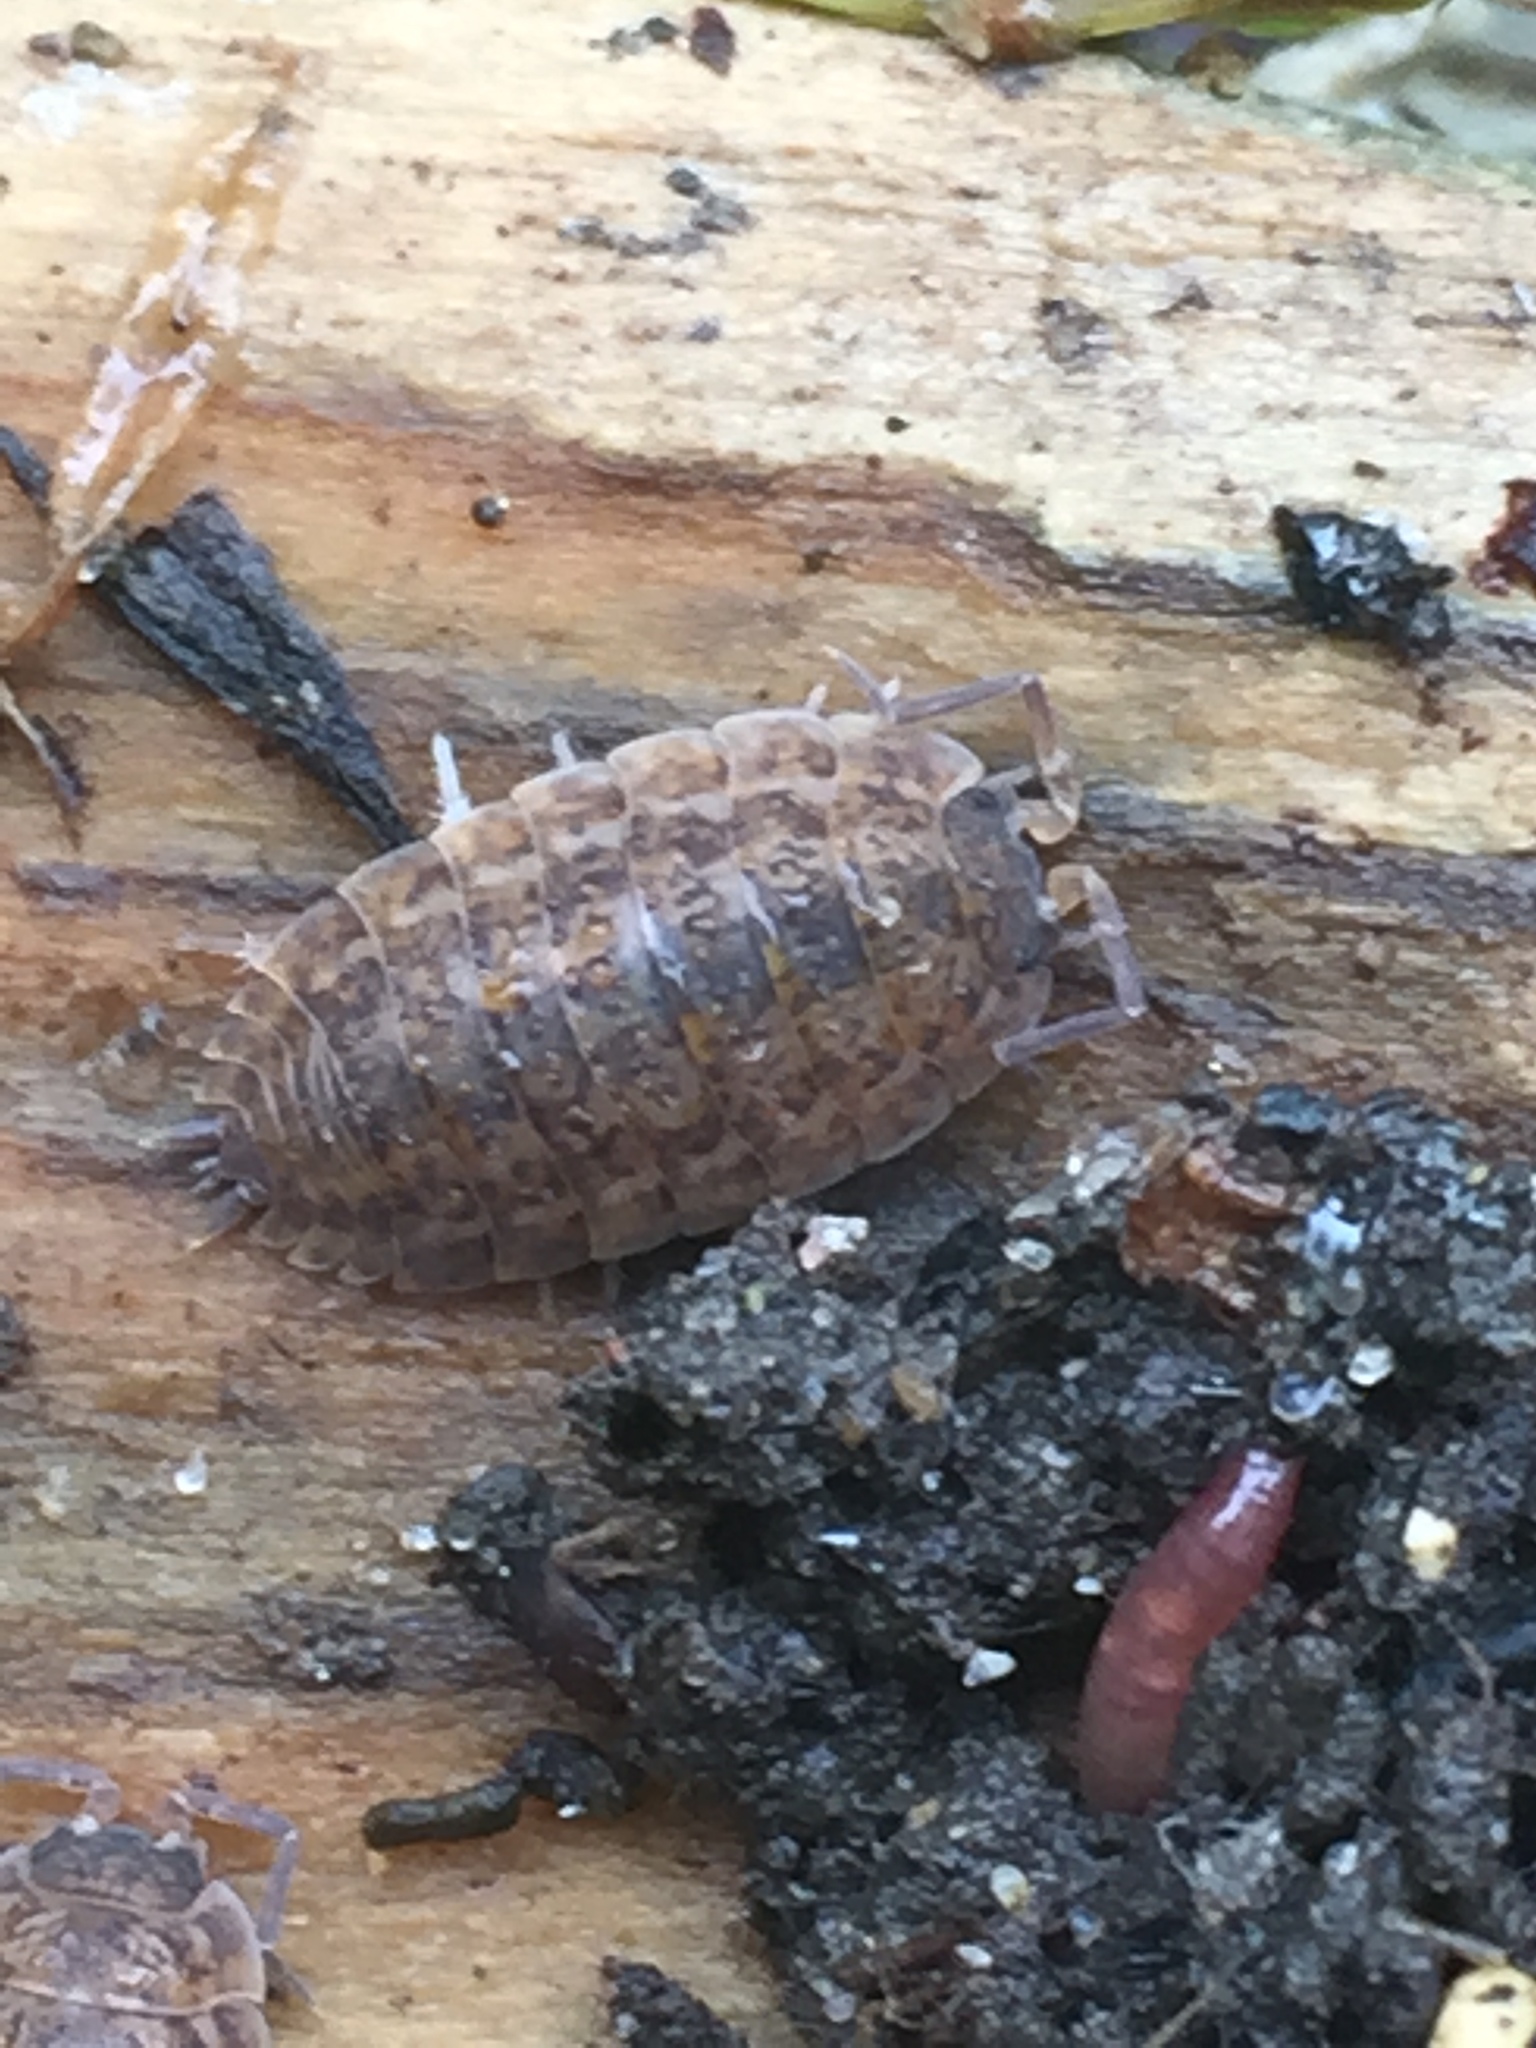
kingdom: Animalia
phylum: Arthropoda
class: Malacostraca
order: Isopoda
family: Trachelipodidae
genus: Trachelipus
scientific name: Trachelipus rathkii
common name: Isopod
